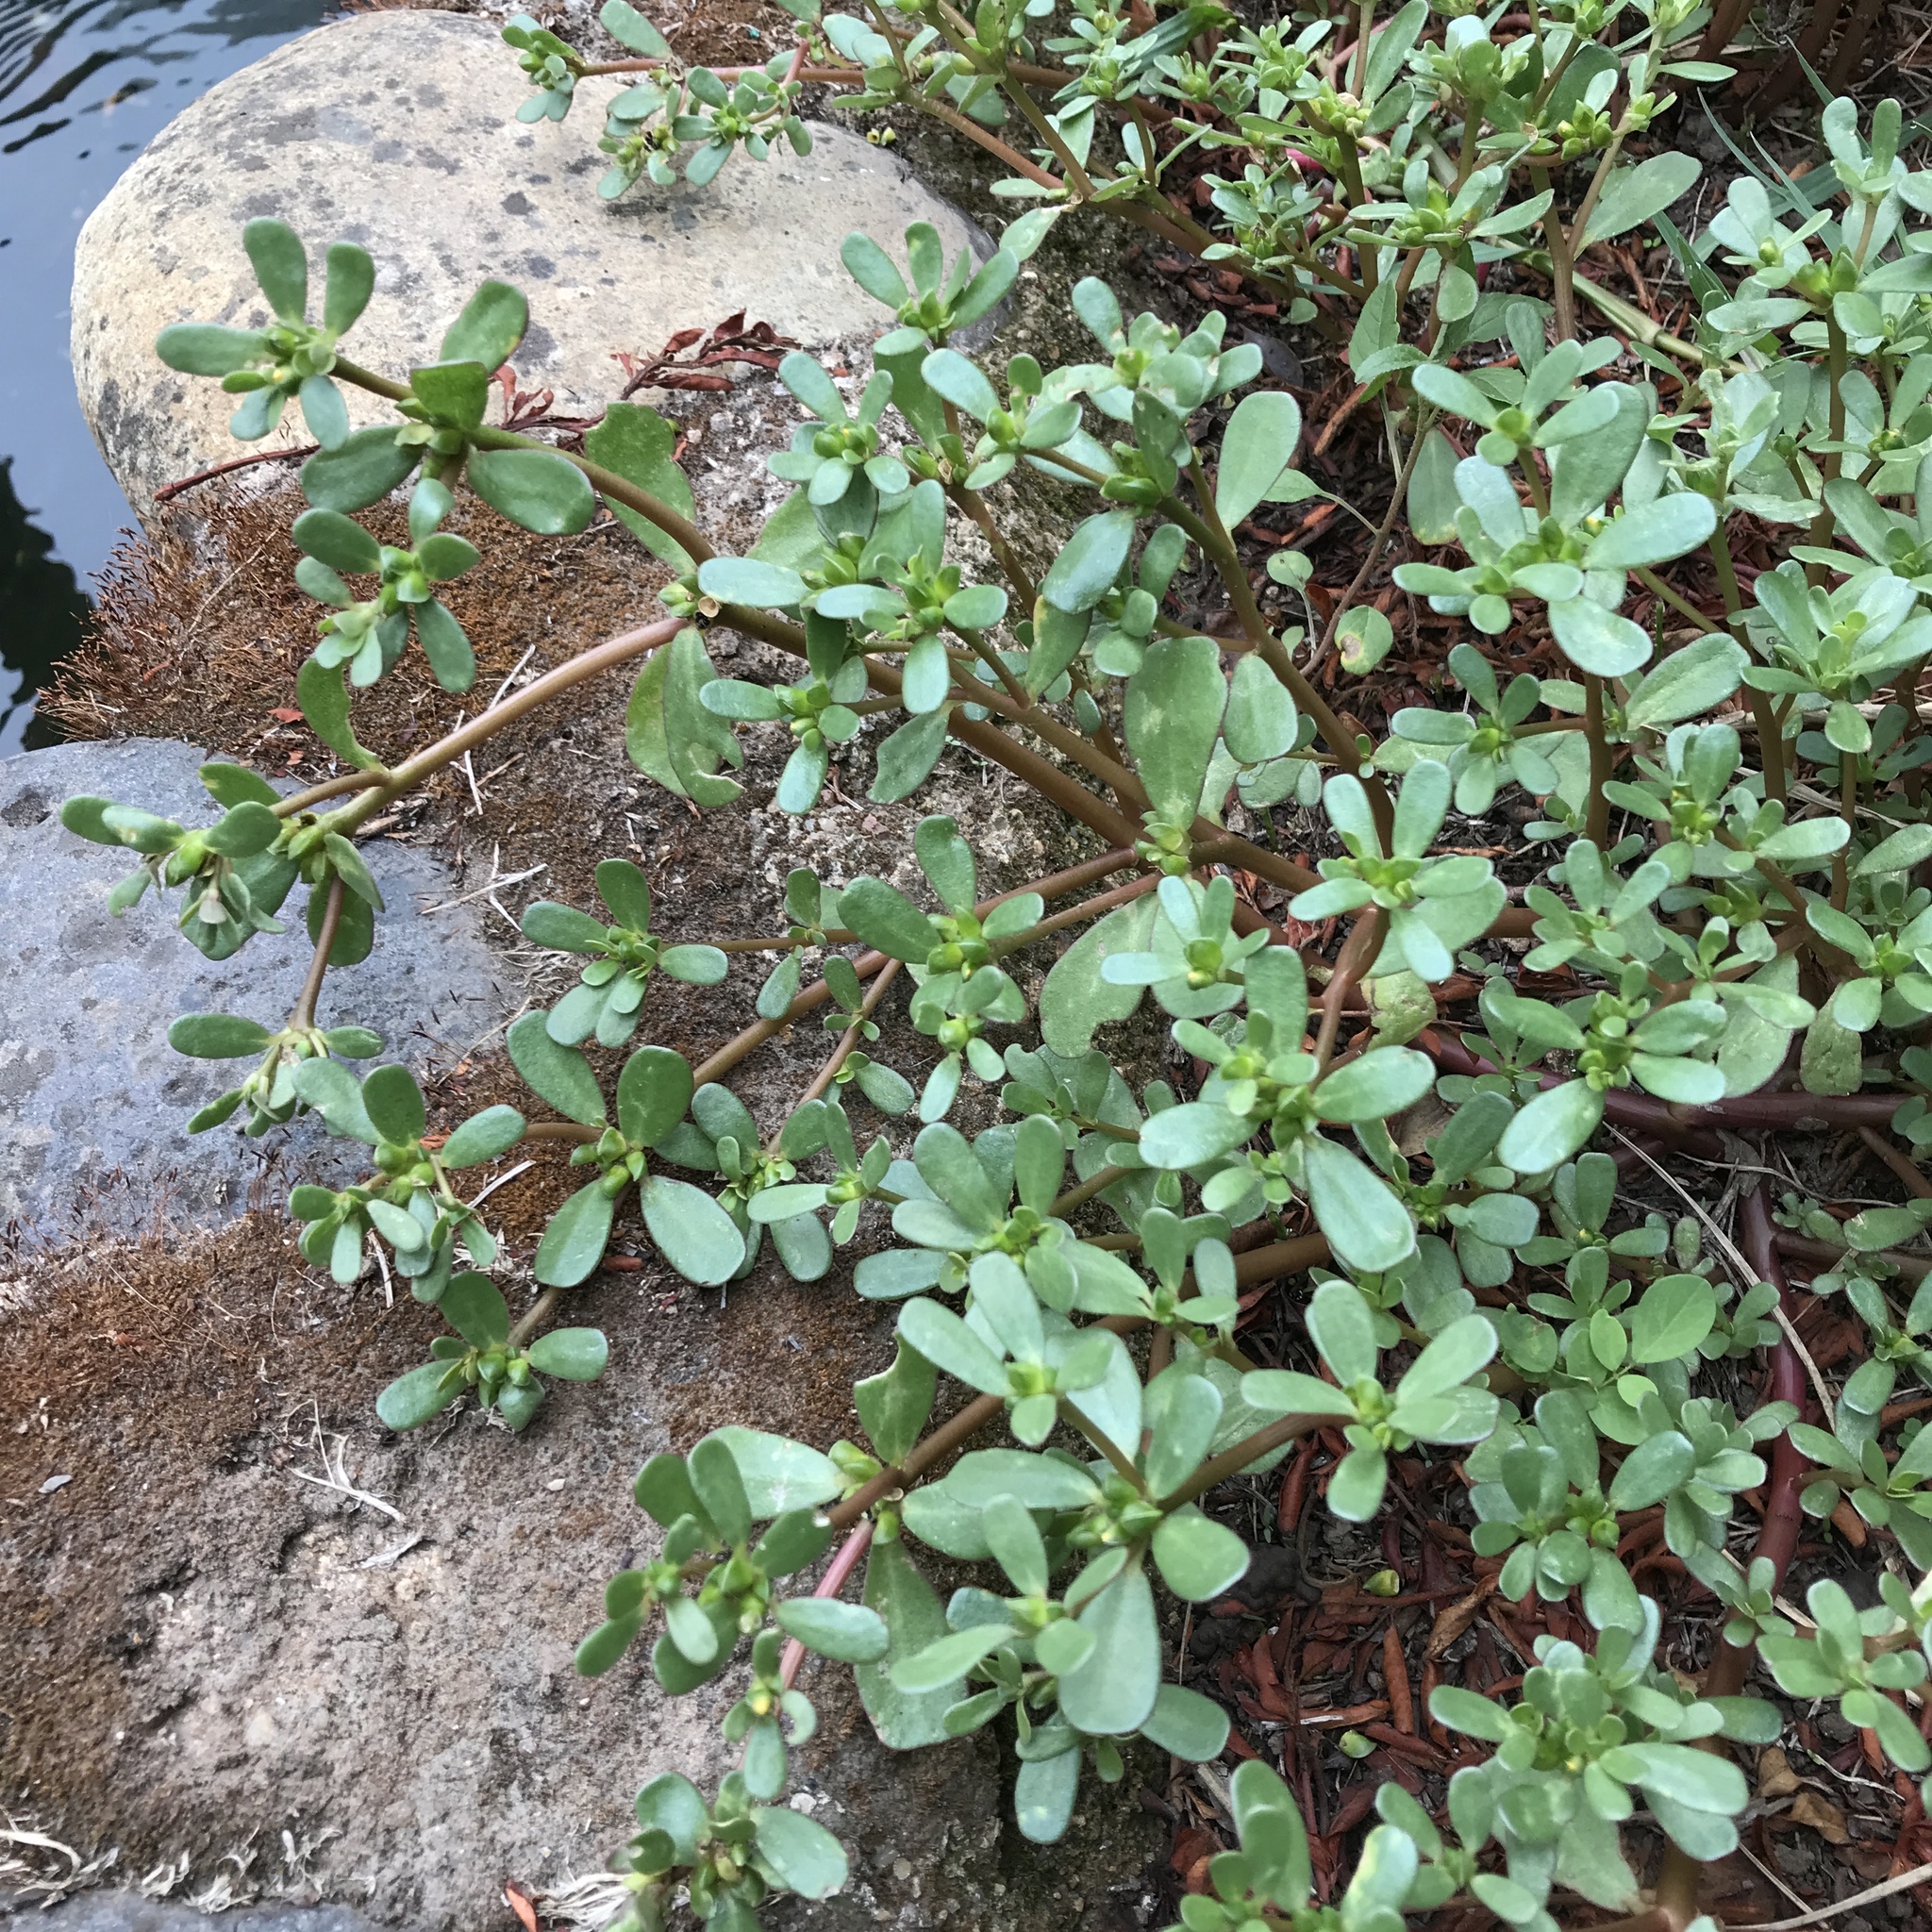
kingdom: Plantae
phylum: Tracheophyta
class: Magnoliopsida
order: Caryophyllales
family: Portulacaceae
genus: Portulaca
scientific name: Portulaca oleracea
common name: Common purslane
